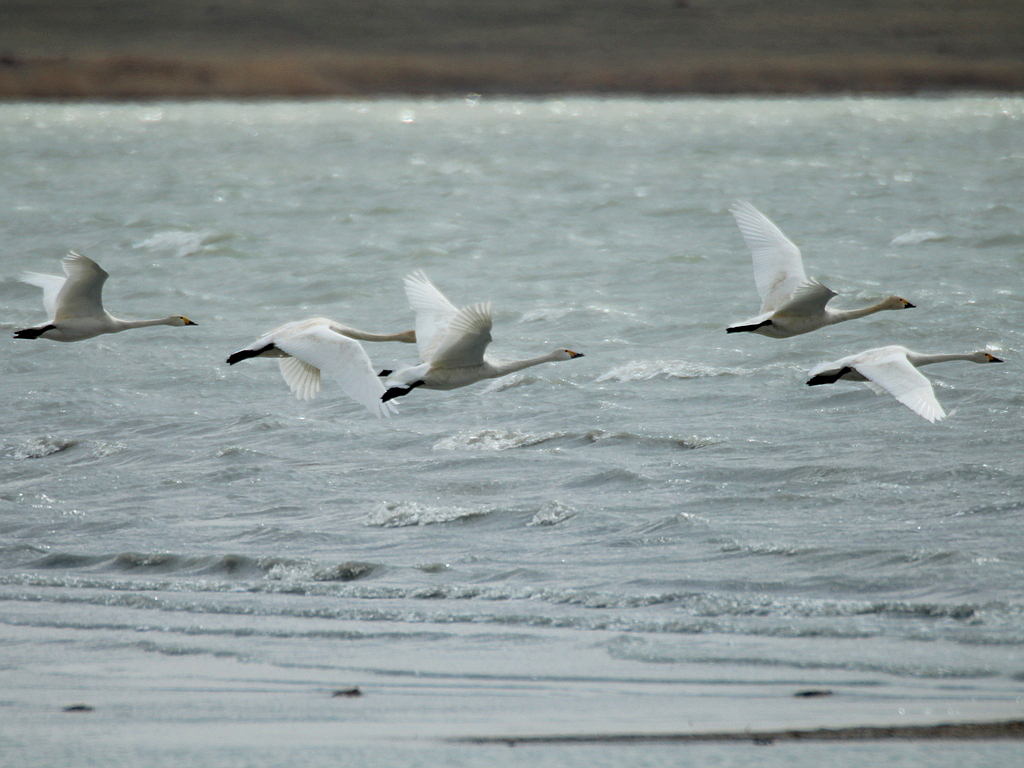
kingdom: Animalia
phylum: Chordata
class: Aves
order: Anseriformes
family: Anatidae
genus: Cygnus
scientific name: Cygnus columbianus
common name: Tundra swan
